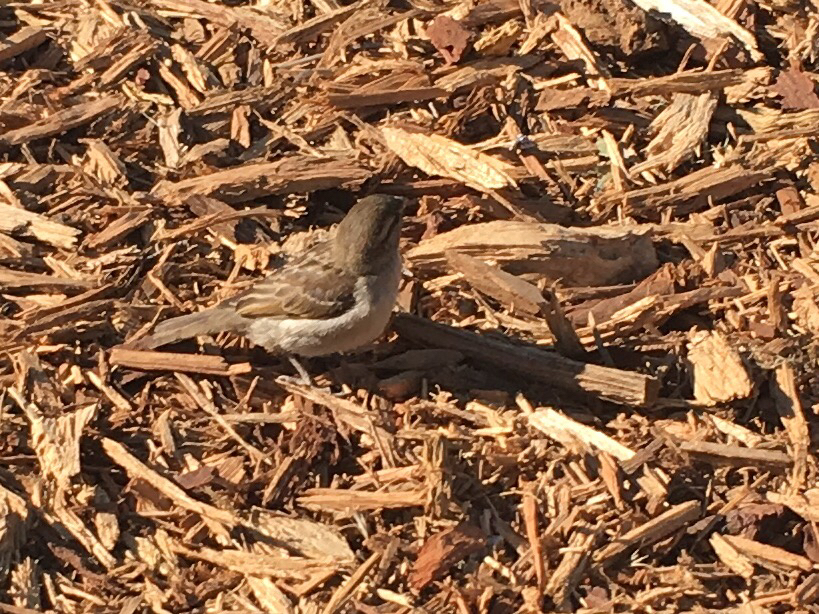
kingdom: Animalia
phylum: Chordata
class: Aves
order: Passeriformes
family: Passeridae
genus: Passer
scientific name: Passer domesticus
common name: House sparrow
